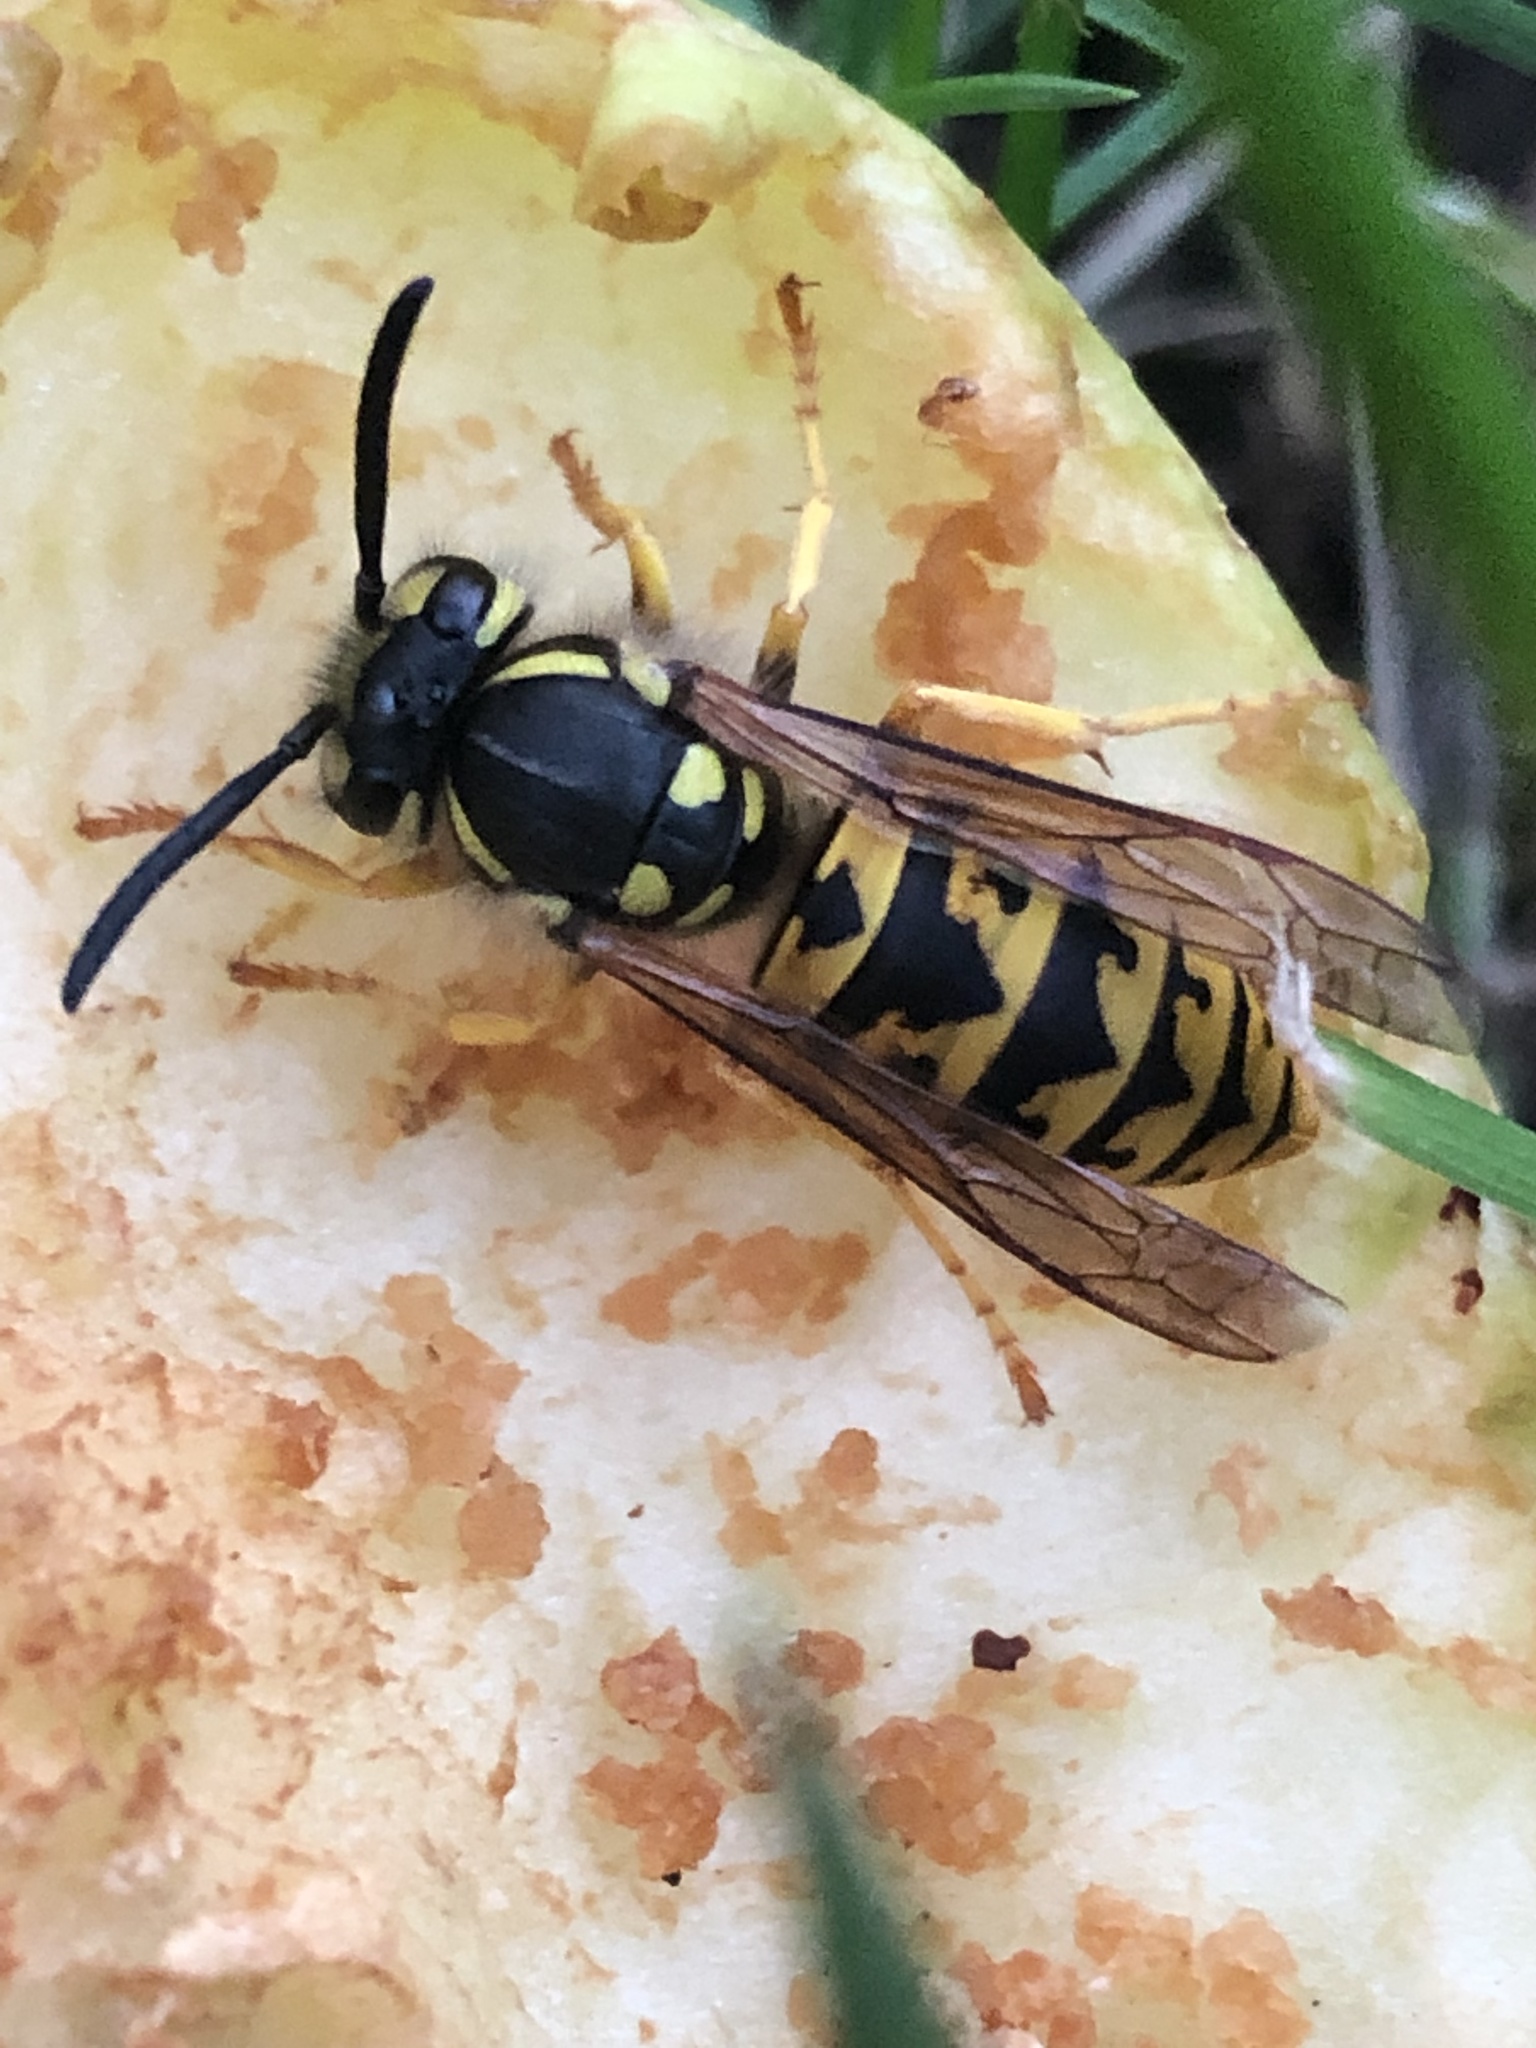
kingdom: Animalia
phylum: Arthropoda
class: Insecta
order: Hymenoptera
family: Vespidae
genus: Vespula
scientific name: Vespula germanica
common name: German wasp
